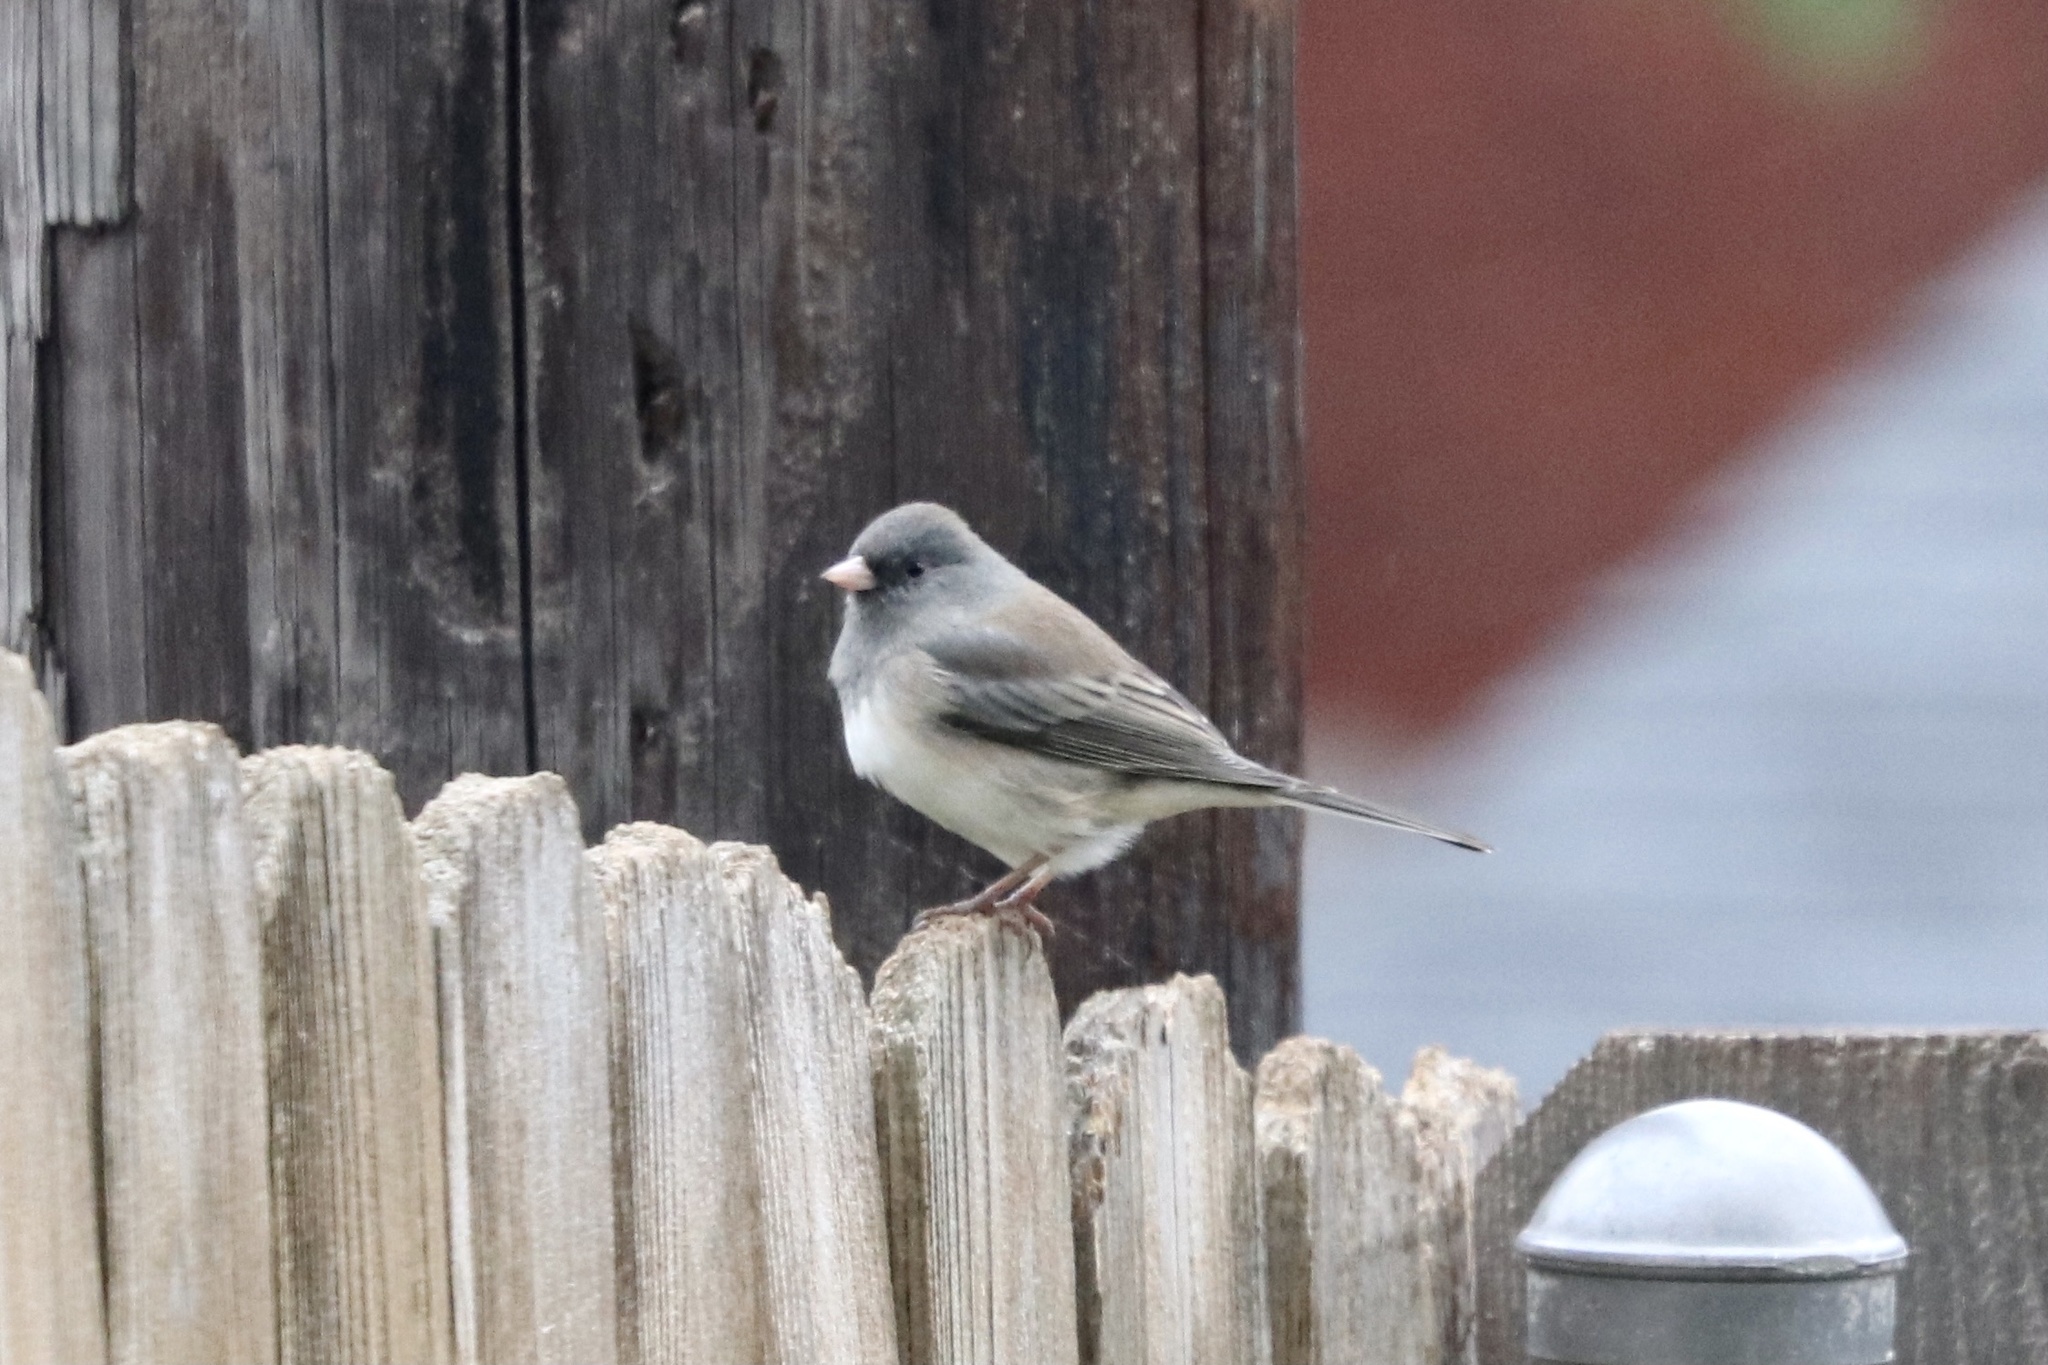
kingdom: Animalia
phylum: Chordata
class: Aves
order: Passeriformes
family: Passerellidae
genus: Junco
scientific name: Junco hyemalis
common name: Dark-eyed junco
